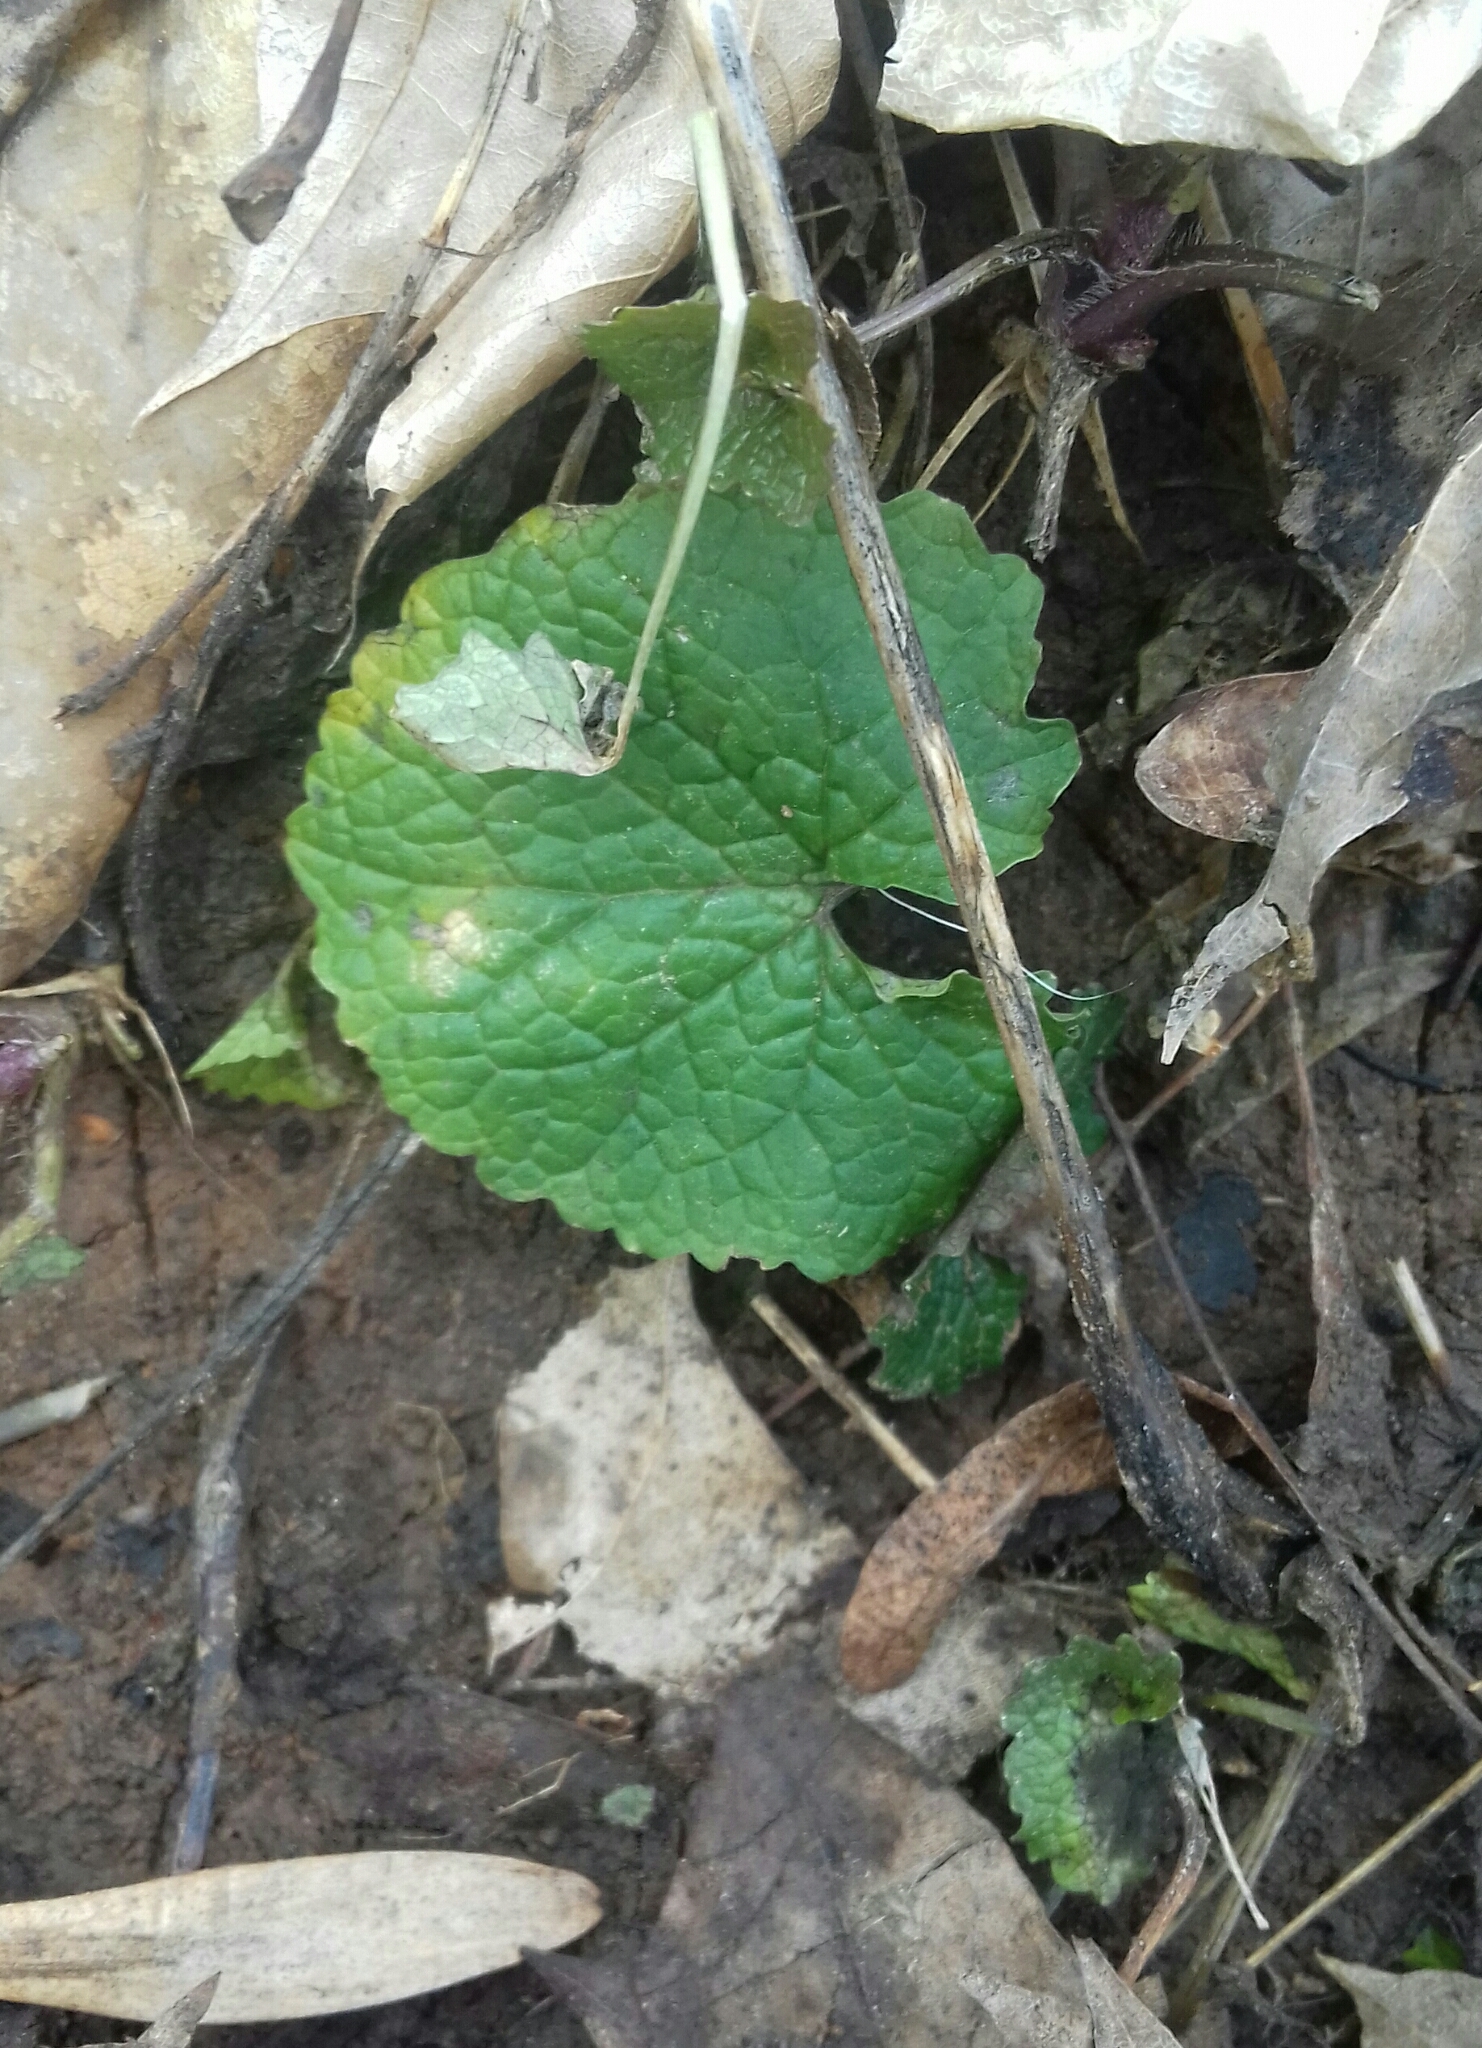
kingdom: Plantae
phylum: Tracheophyta
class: Magnoliopsida
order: Brassicales
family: Brassicaceae
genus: Alliaria
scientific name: Alliaria petiolata
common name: Garlic mustard
